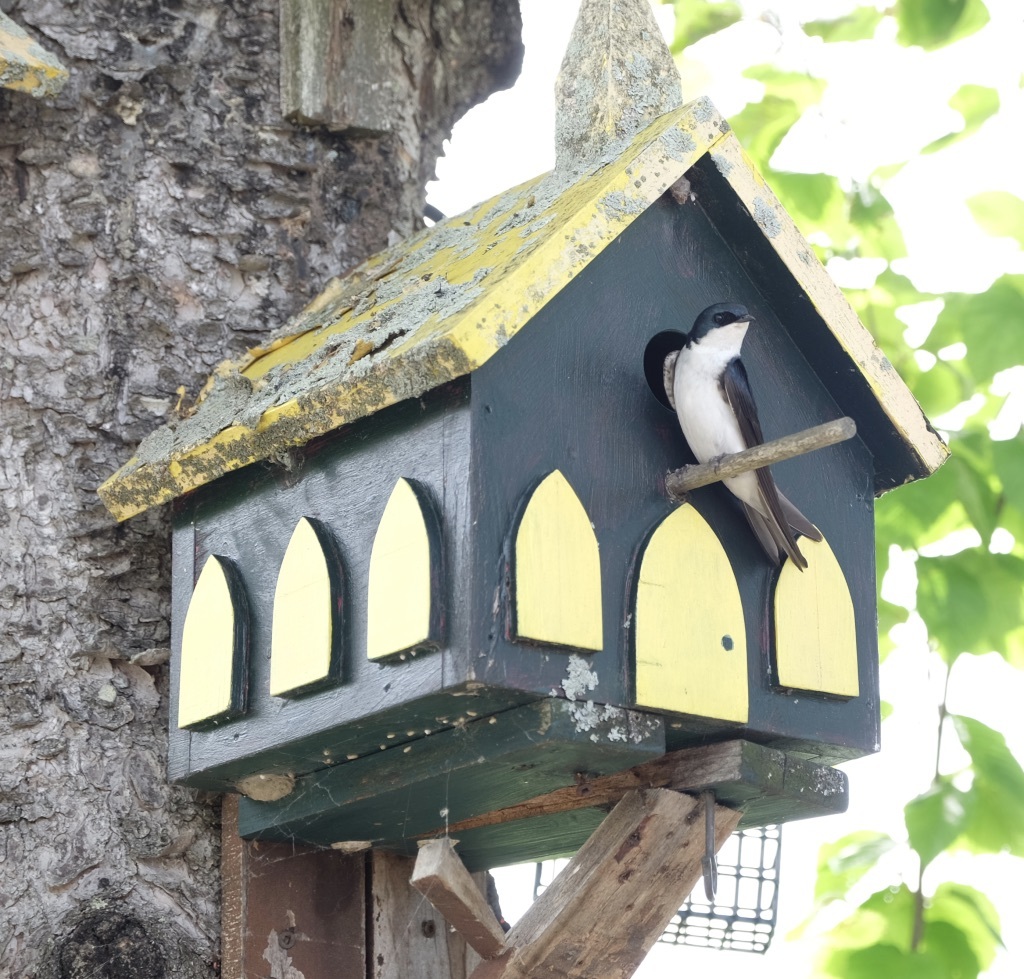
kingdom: Animalia
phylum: Chordata
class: Aves
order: Passeriformes
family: Hirundinidae
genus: Tachycineta
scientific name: Tachycineta bicolor
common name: Tree swallow
